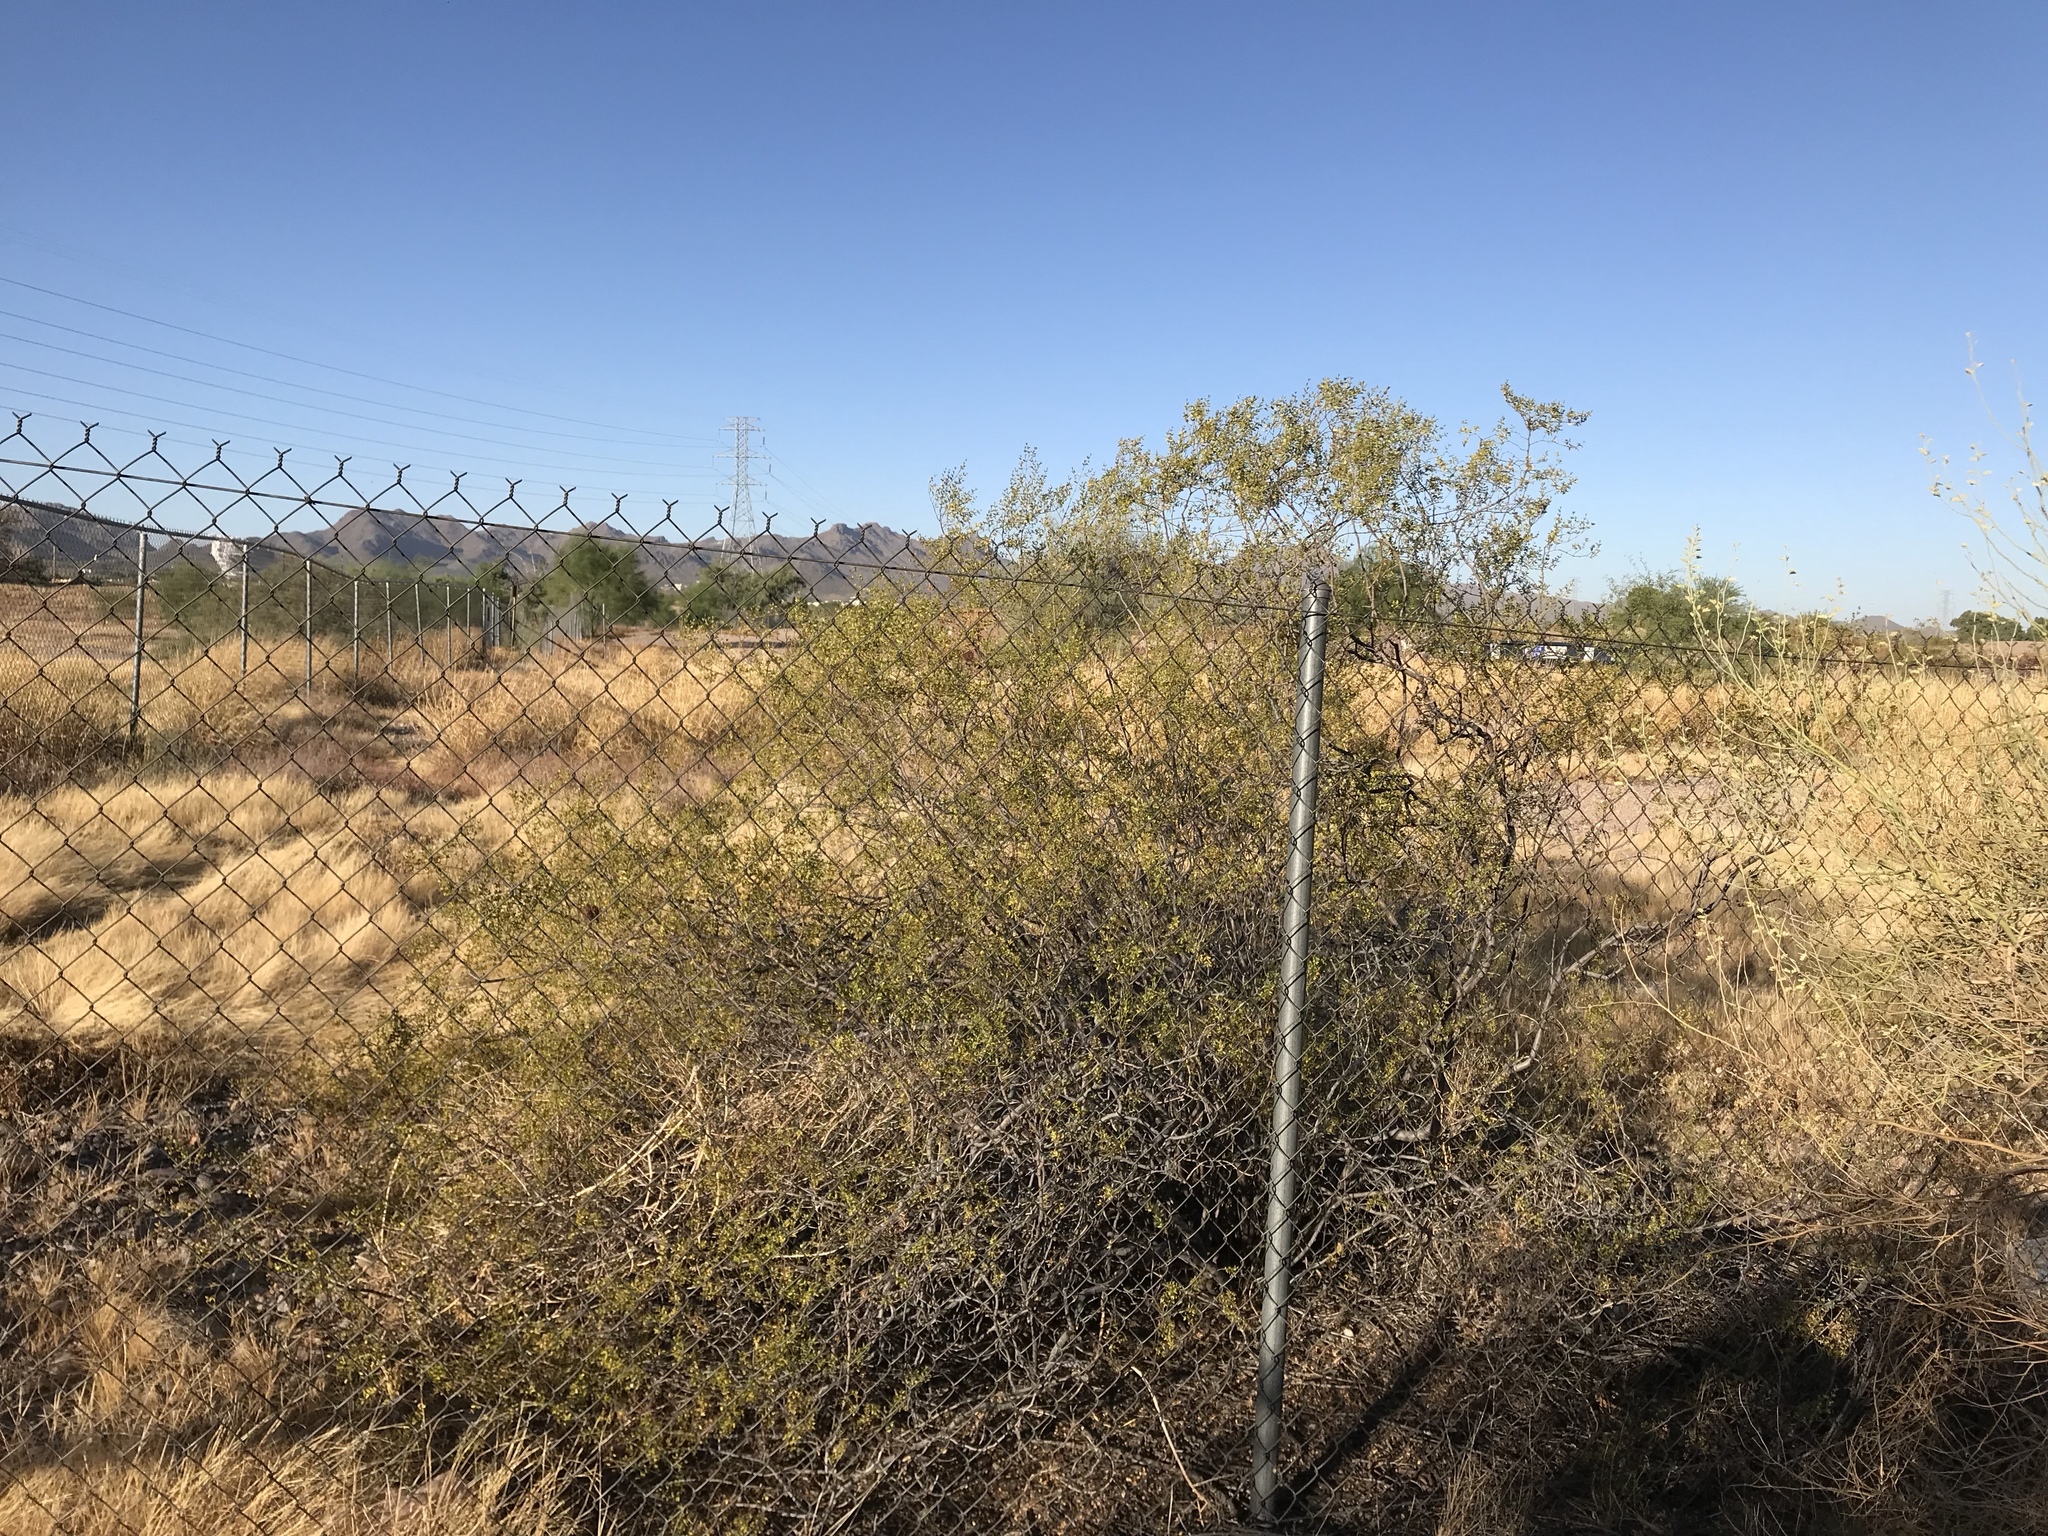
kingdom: Plantae
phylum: Tracheophyta
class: Magnoliopsida
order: Zygophyllales
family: Zygophyllaceae
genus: Larrea
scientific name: Larrea tridentata
